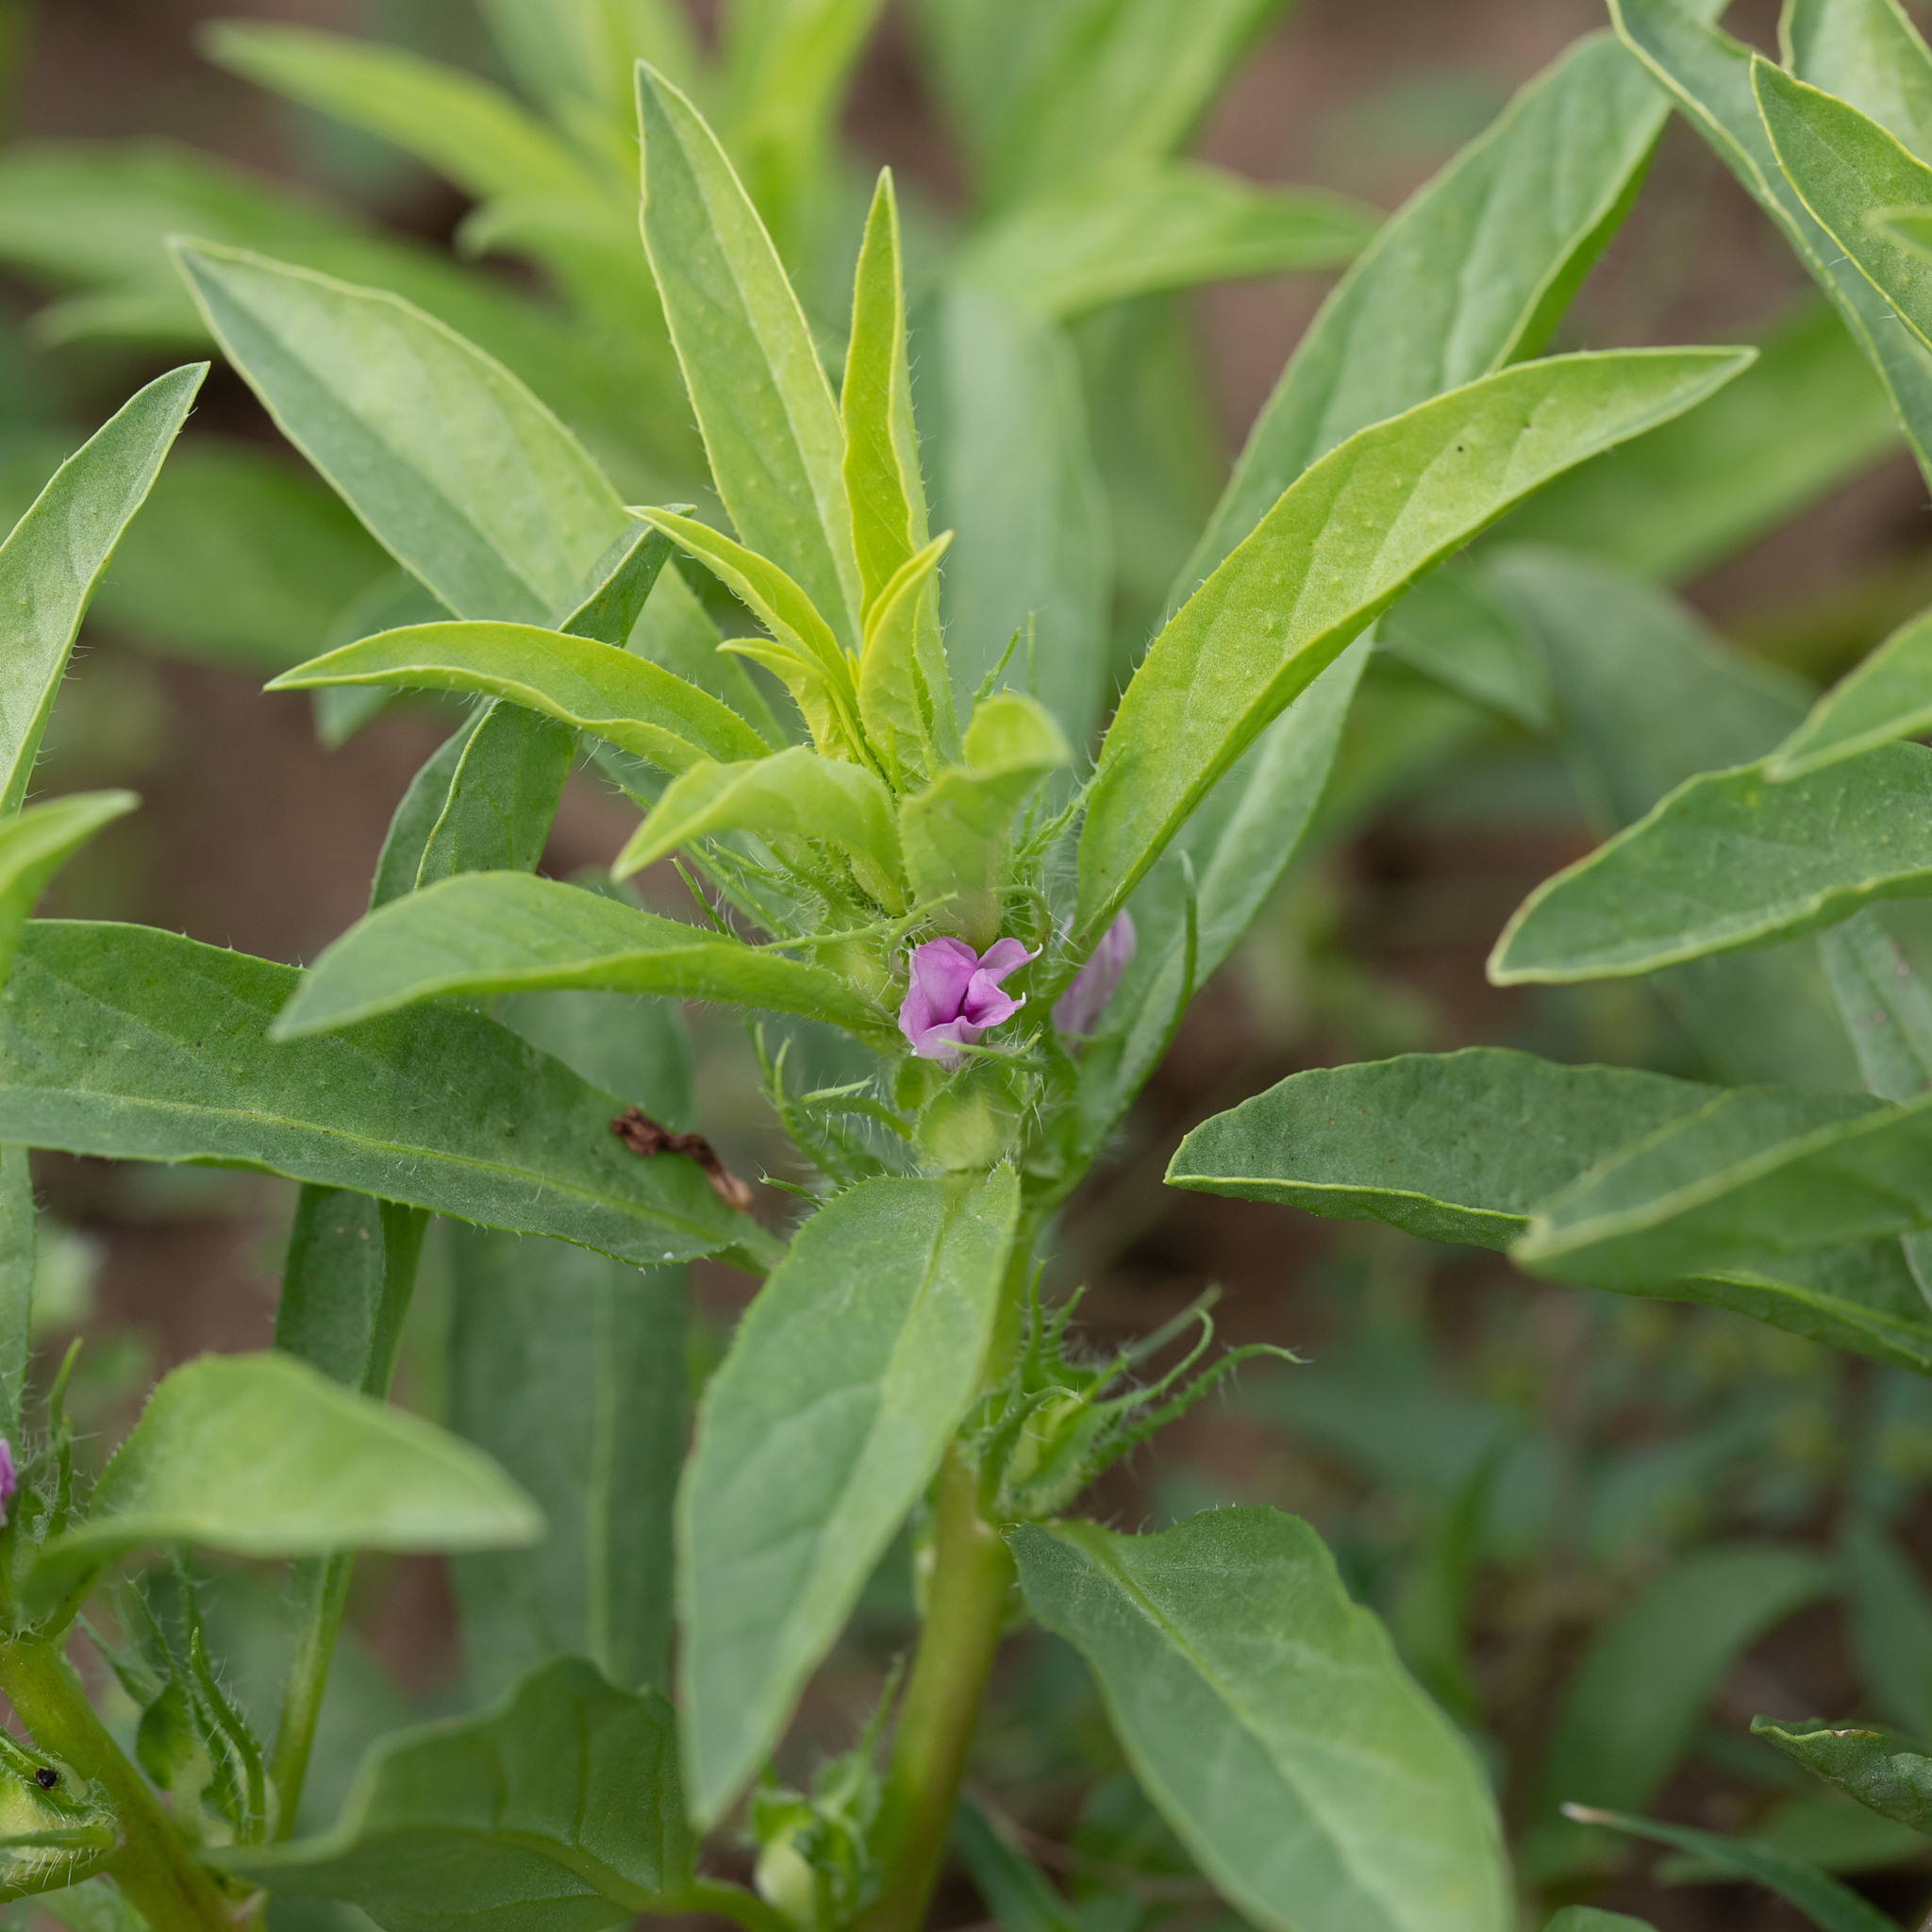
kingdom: Plantae
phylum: Tracheophyta
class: Magnoliopsida
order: Solanales
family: Convolvulaceae
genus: Ipomoea
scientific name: Ipomoea polymorpha
